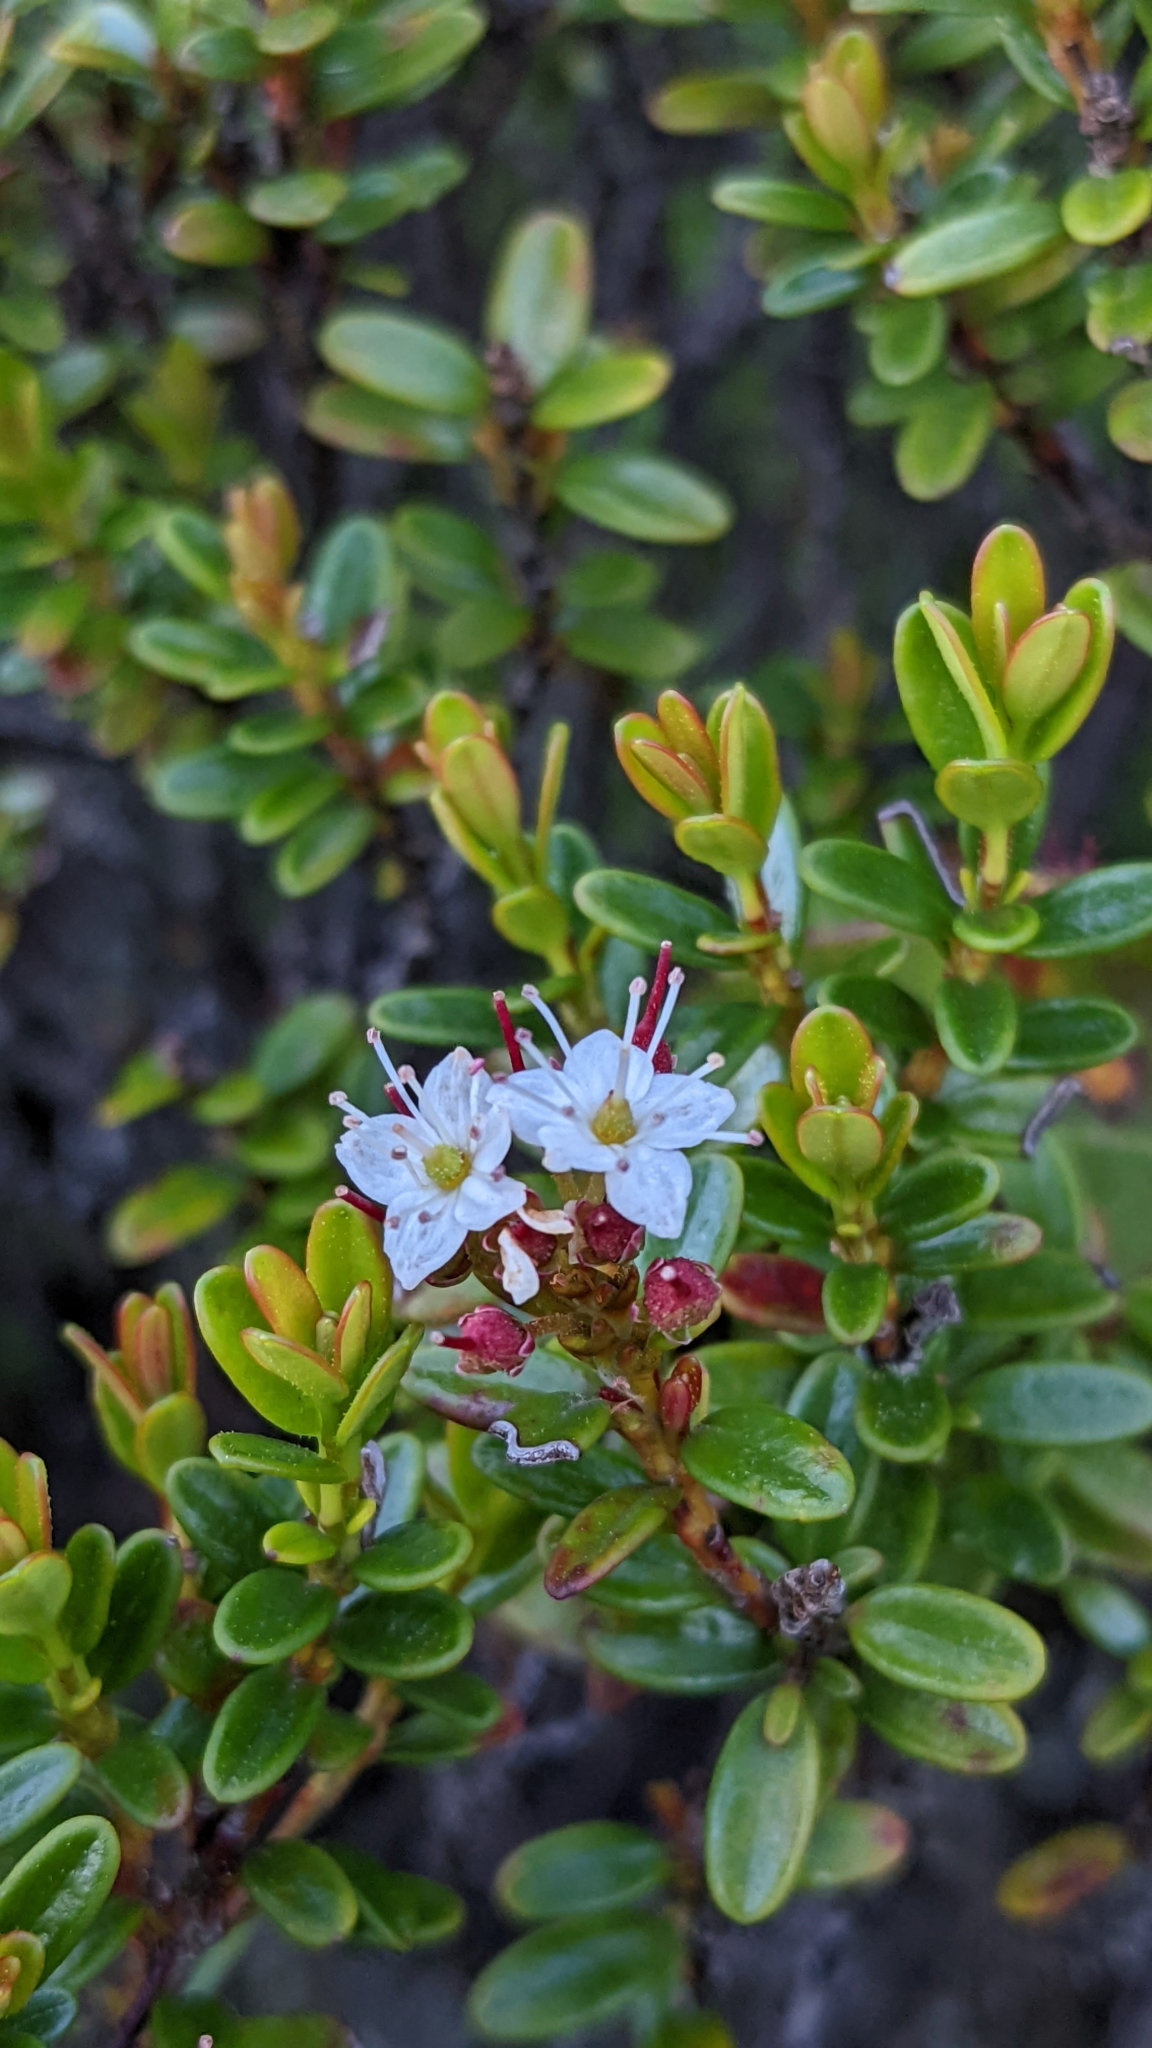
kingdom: Plantae
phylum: Tracheophyta
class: Magnoliopsida
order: Ericales
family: Ericaceae
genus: Kalmia
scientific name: Kalmia buxifolia
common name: Sandmyrtle
